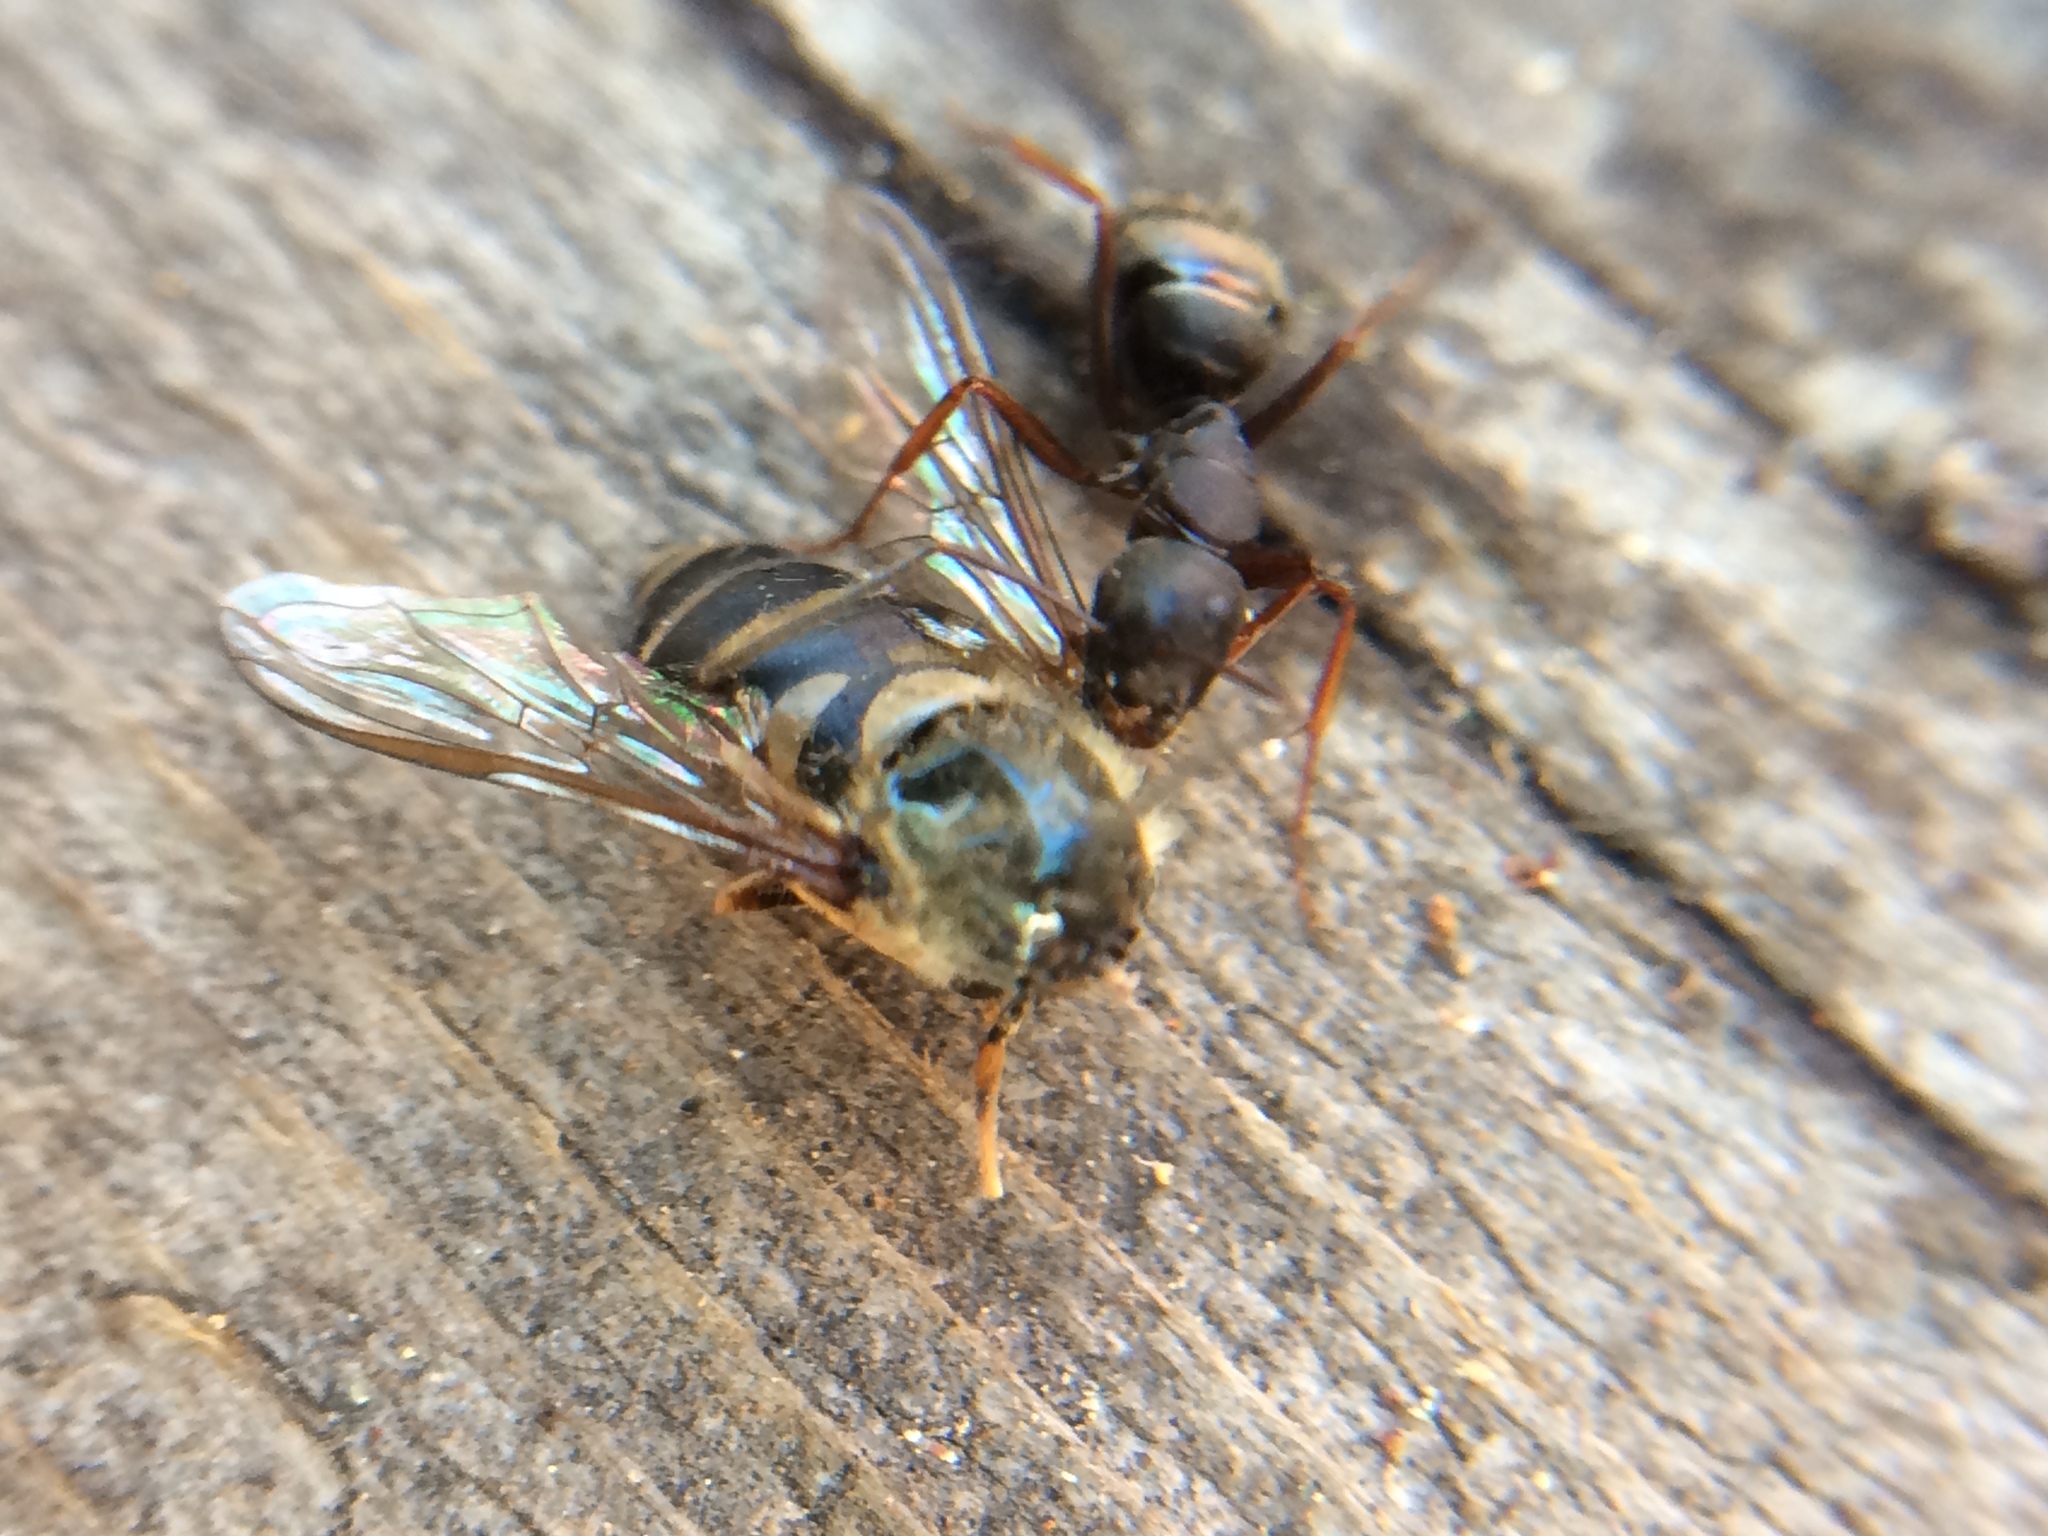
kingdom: Animalia
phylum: Arthropoda
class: Insecta
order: Diptera
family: Syrphidae
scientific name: Syrphidae
